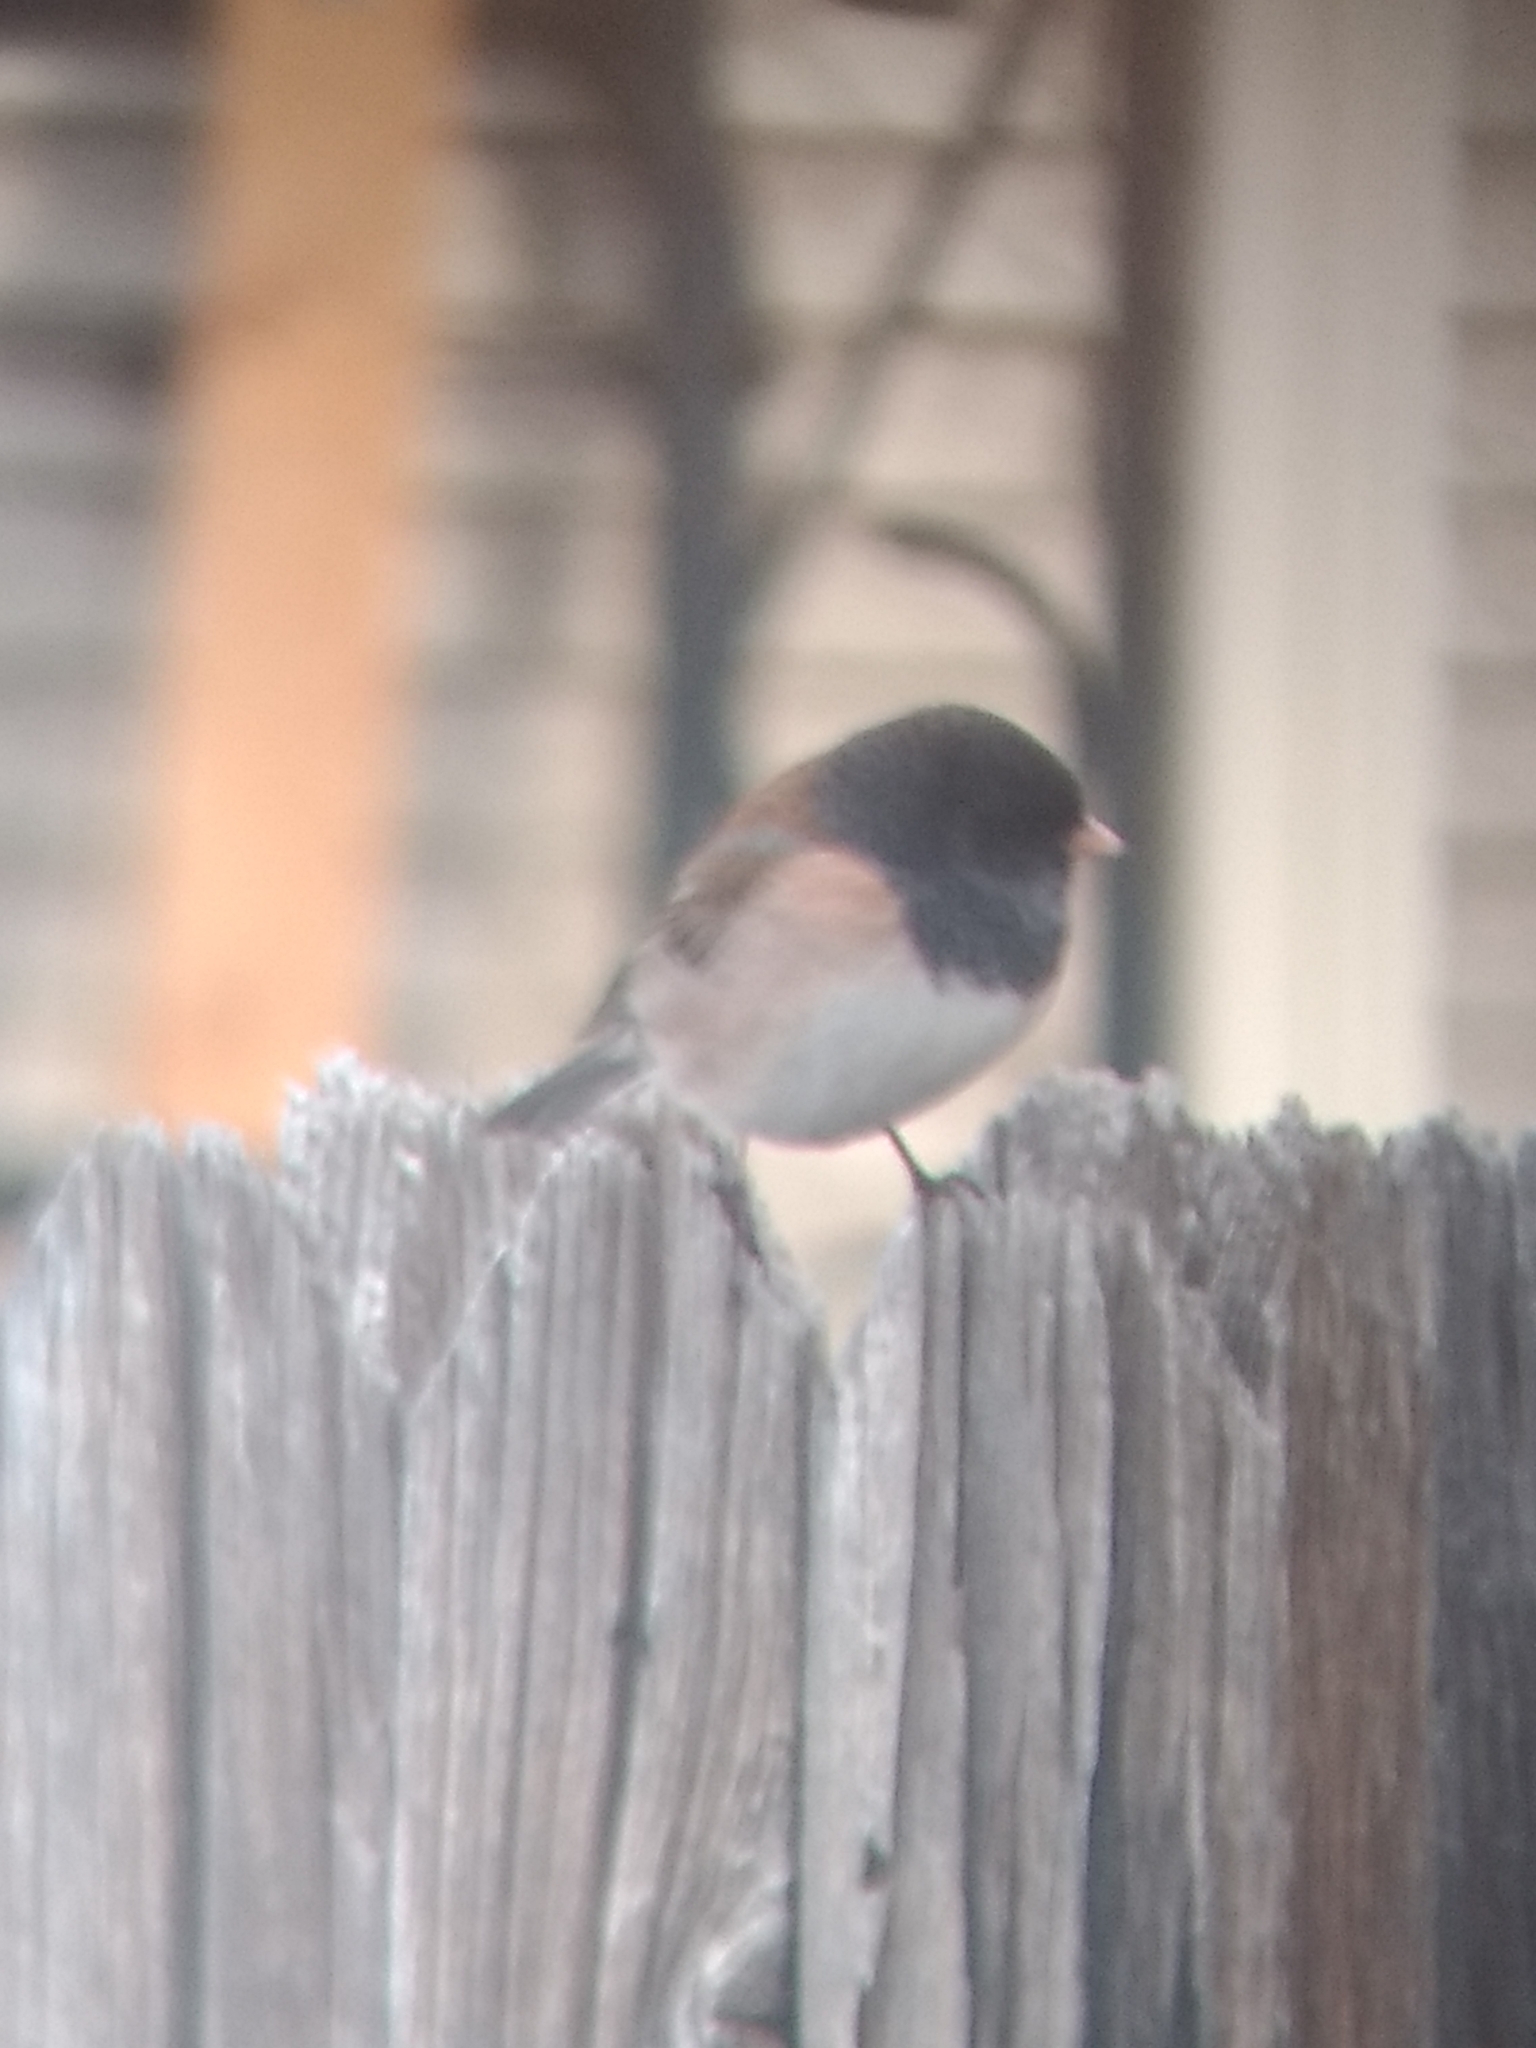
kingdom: Animalia
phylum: Chordata
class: Aves
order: Passeriformes
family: Passerellidae
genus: Junco
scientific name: Junco hyemalis
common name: Dark-eyed junco
